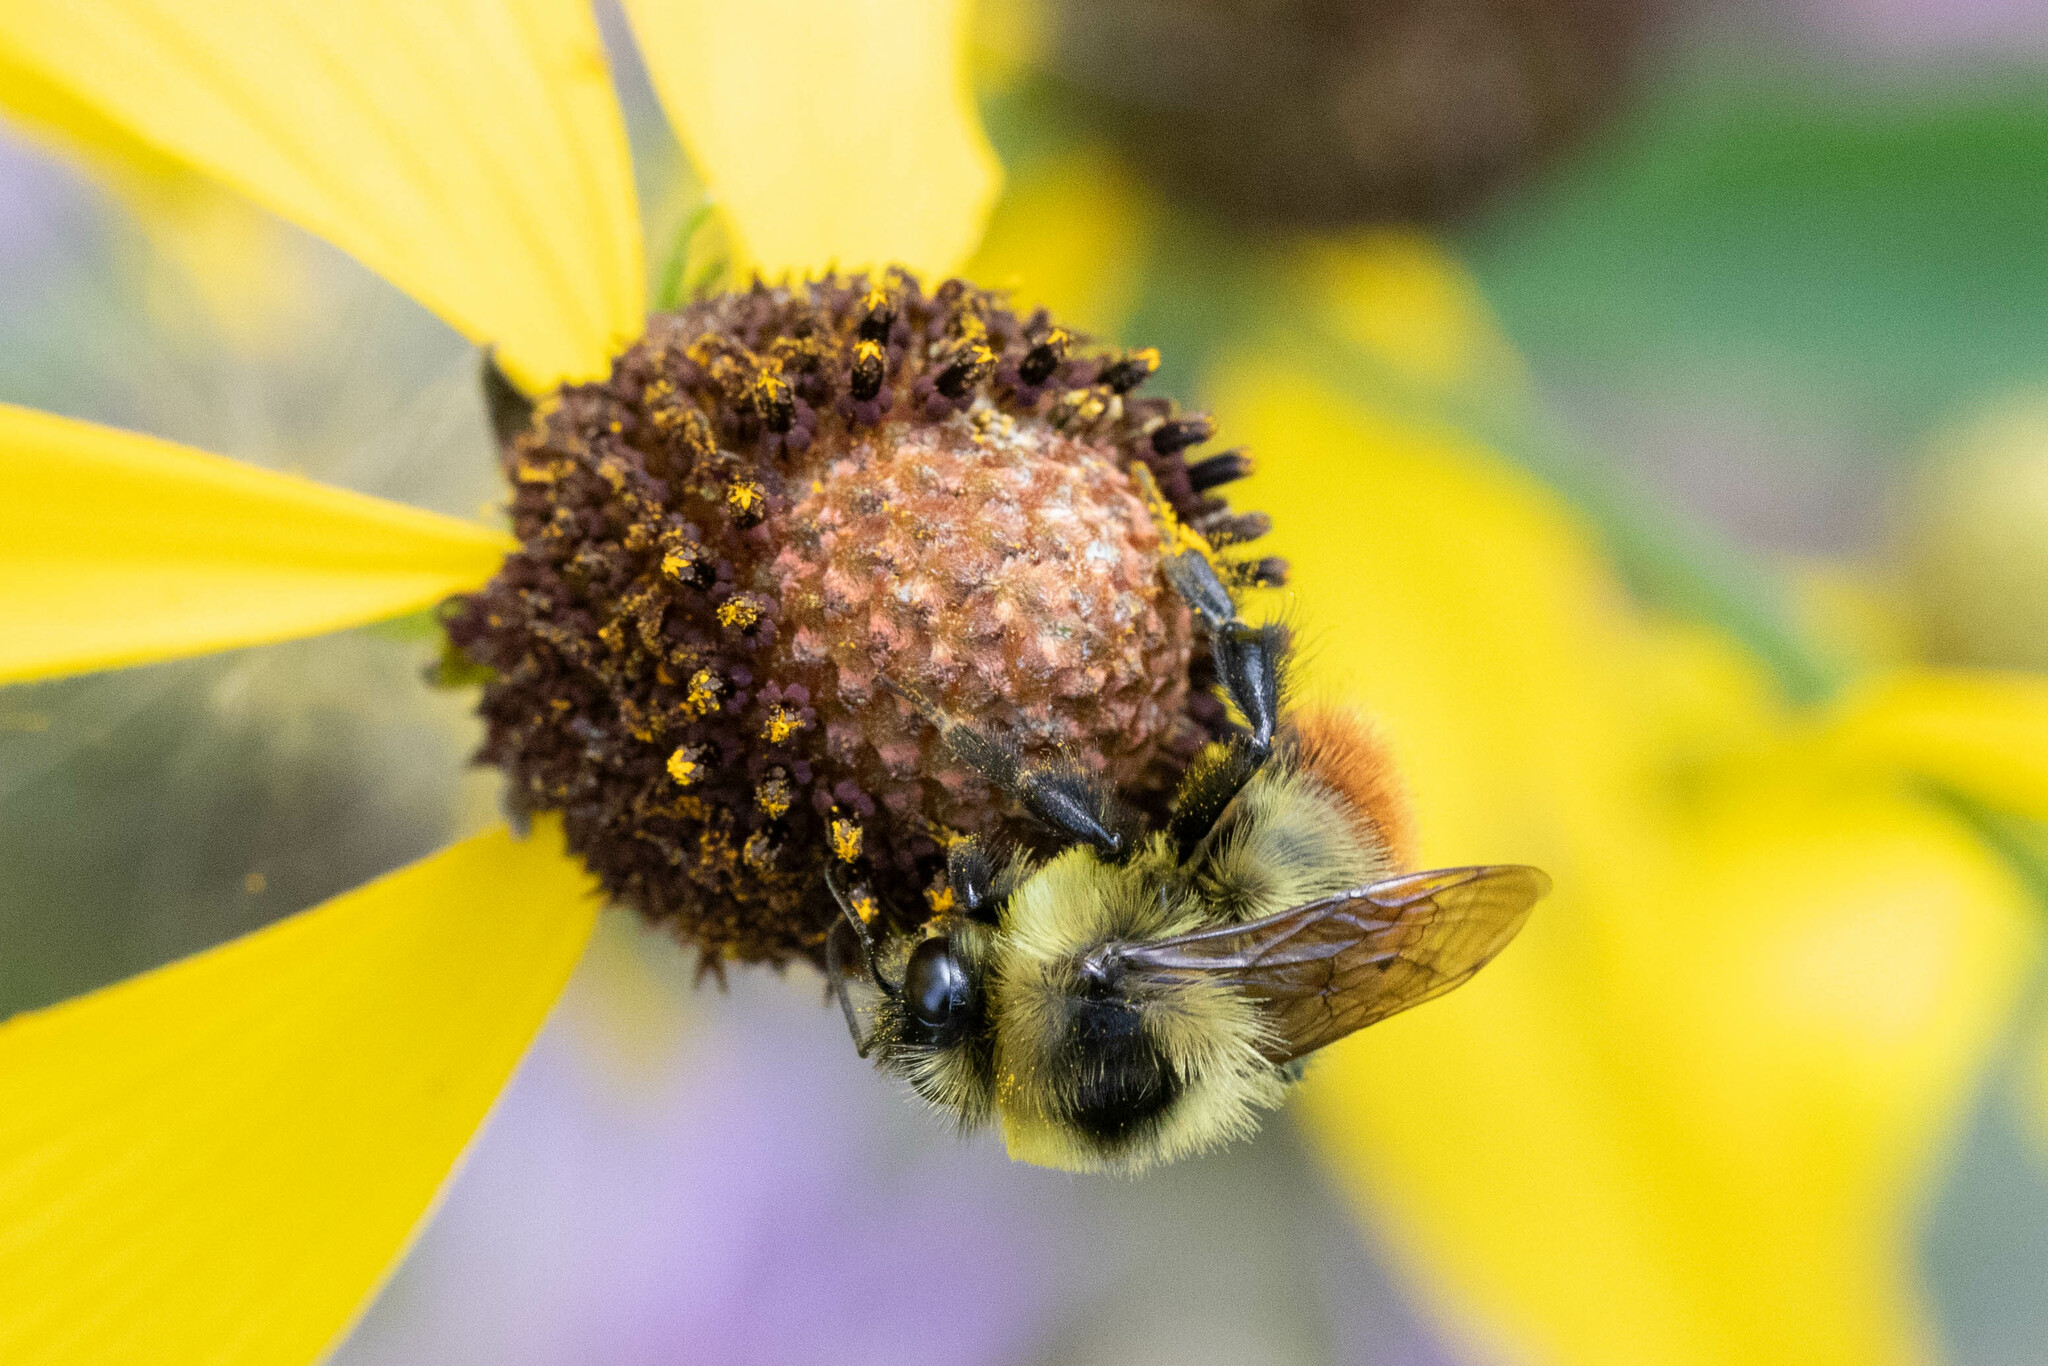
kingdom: Animalia
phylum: Arthropoda
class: Insecta
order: Hymenoptera
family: Apidae
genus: Bombus
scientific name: Bombus rufocinctus
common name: Red-belted bumble bee
